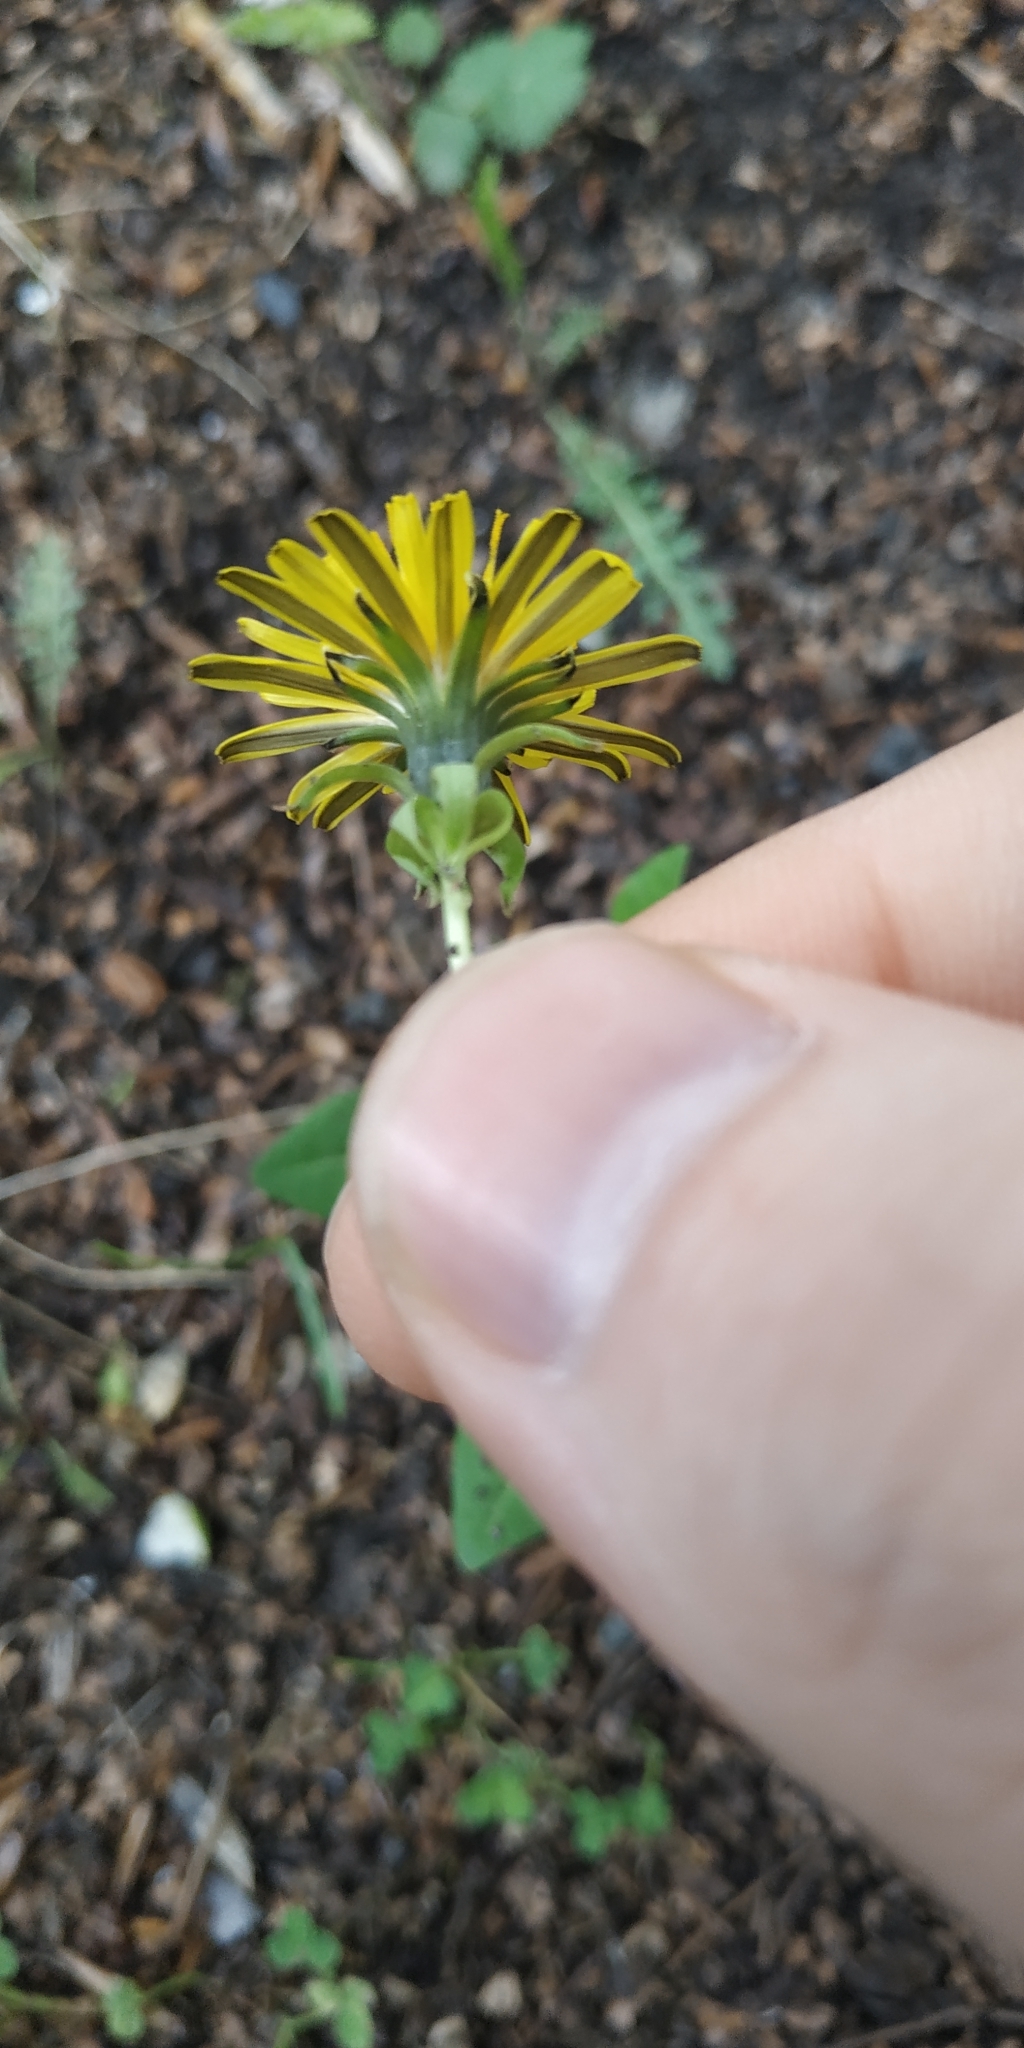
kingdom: Plantae
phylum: Tracheophyta
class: Magnoliopsida
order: Asterales
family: Asteraceae
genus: Taraxacum
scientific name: Taraxacum officinale
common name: Common dandelion
